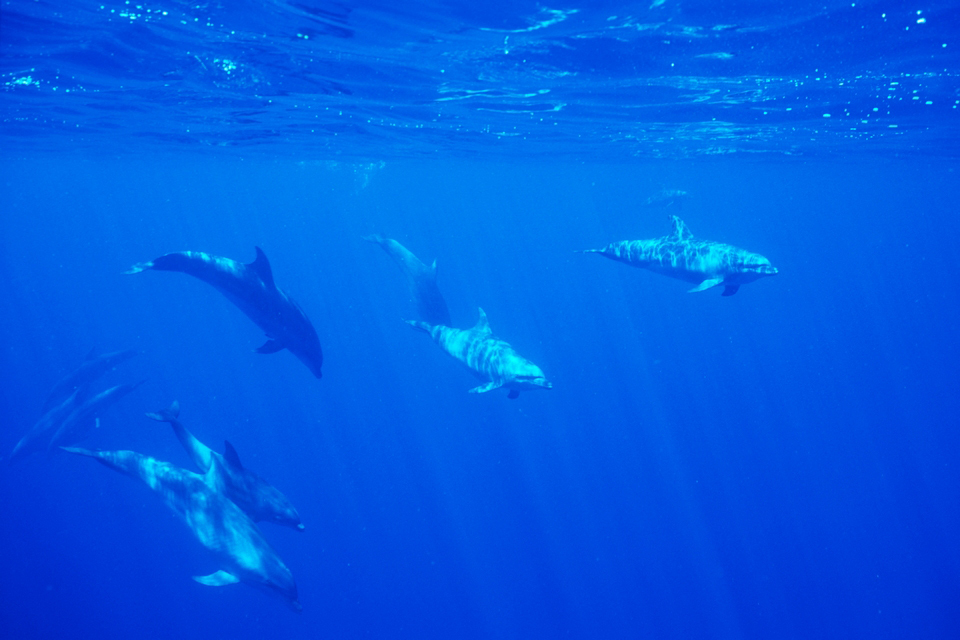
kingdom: Animalia
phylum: Chordata
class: Mammalia
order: Cetacea
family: Delphinidae
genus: Tursiops
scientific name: Tursiops truncatus
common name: Bottlenose dolphin
